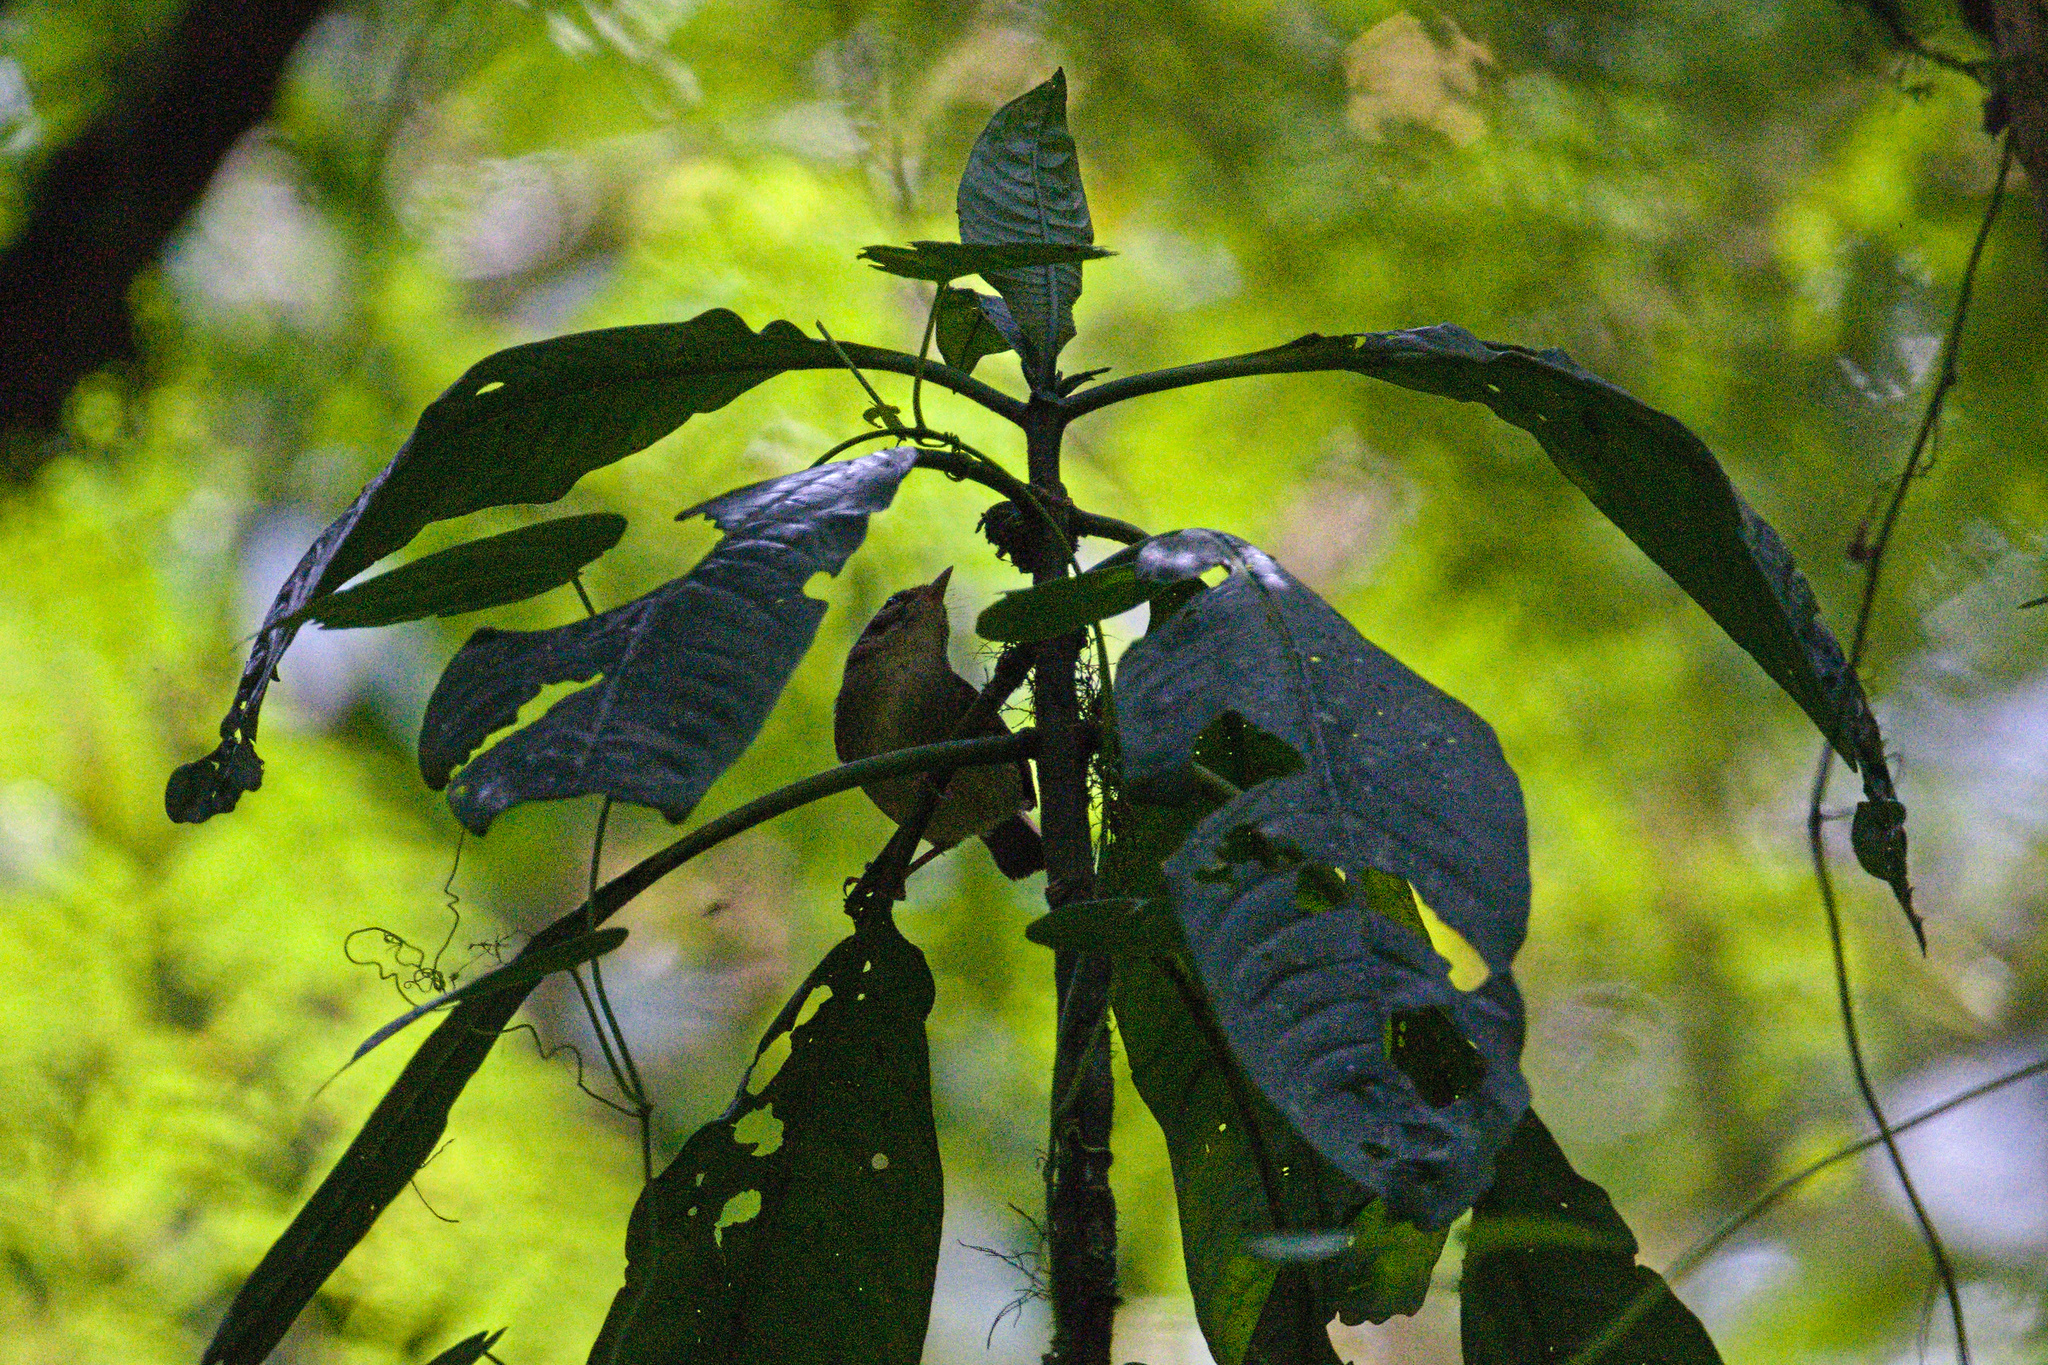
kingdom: Animalia
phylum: Chordata
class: Aves
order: Passeriformes
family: Parulidae
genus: Basileuterus
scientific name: Basileuterus melanotis
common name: Black-eared warbler
